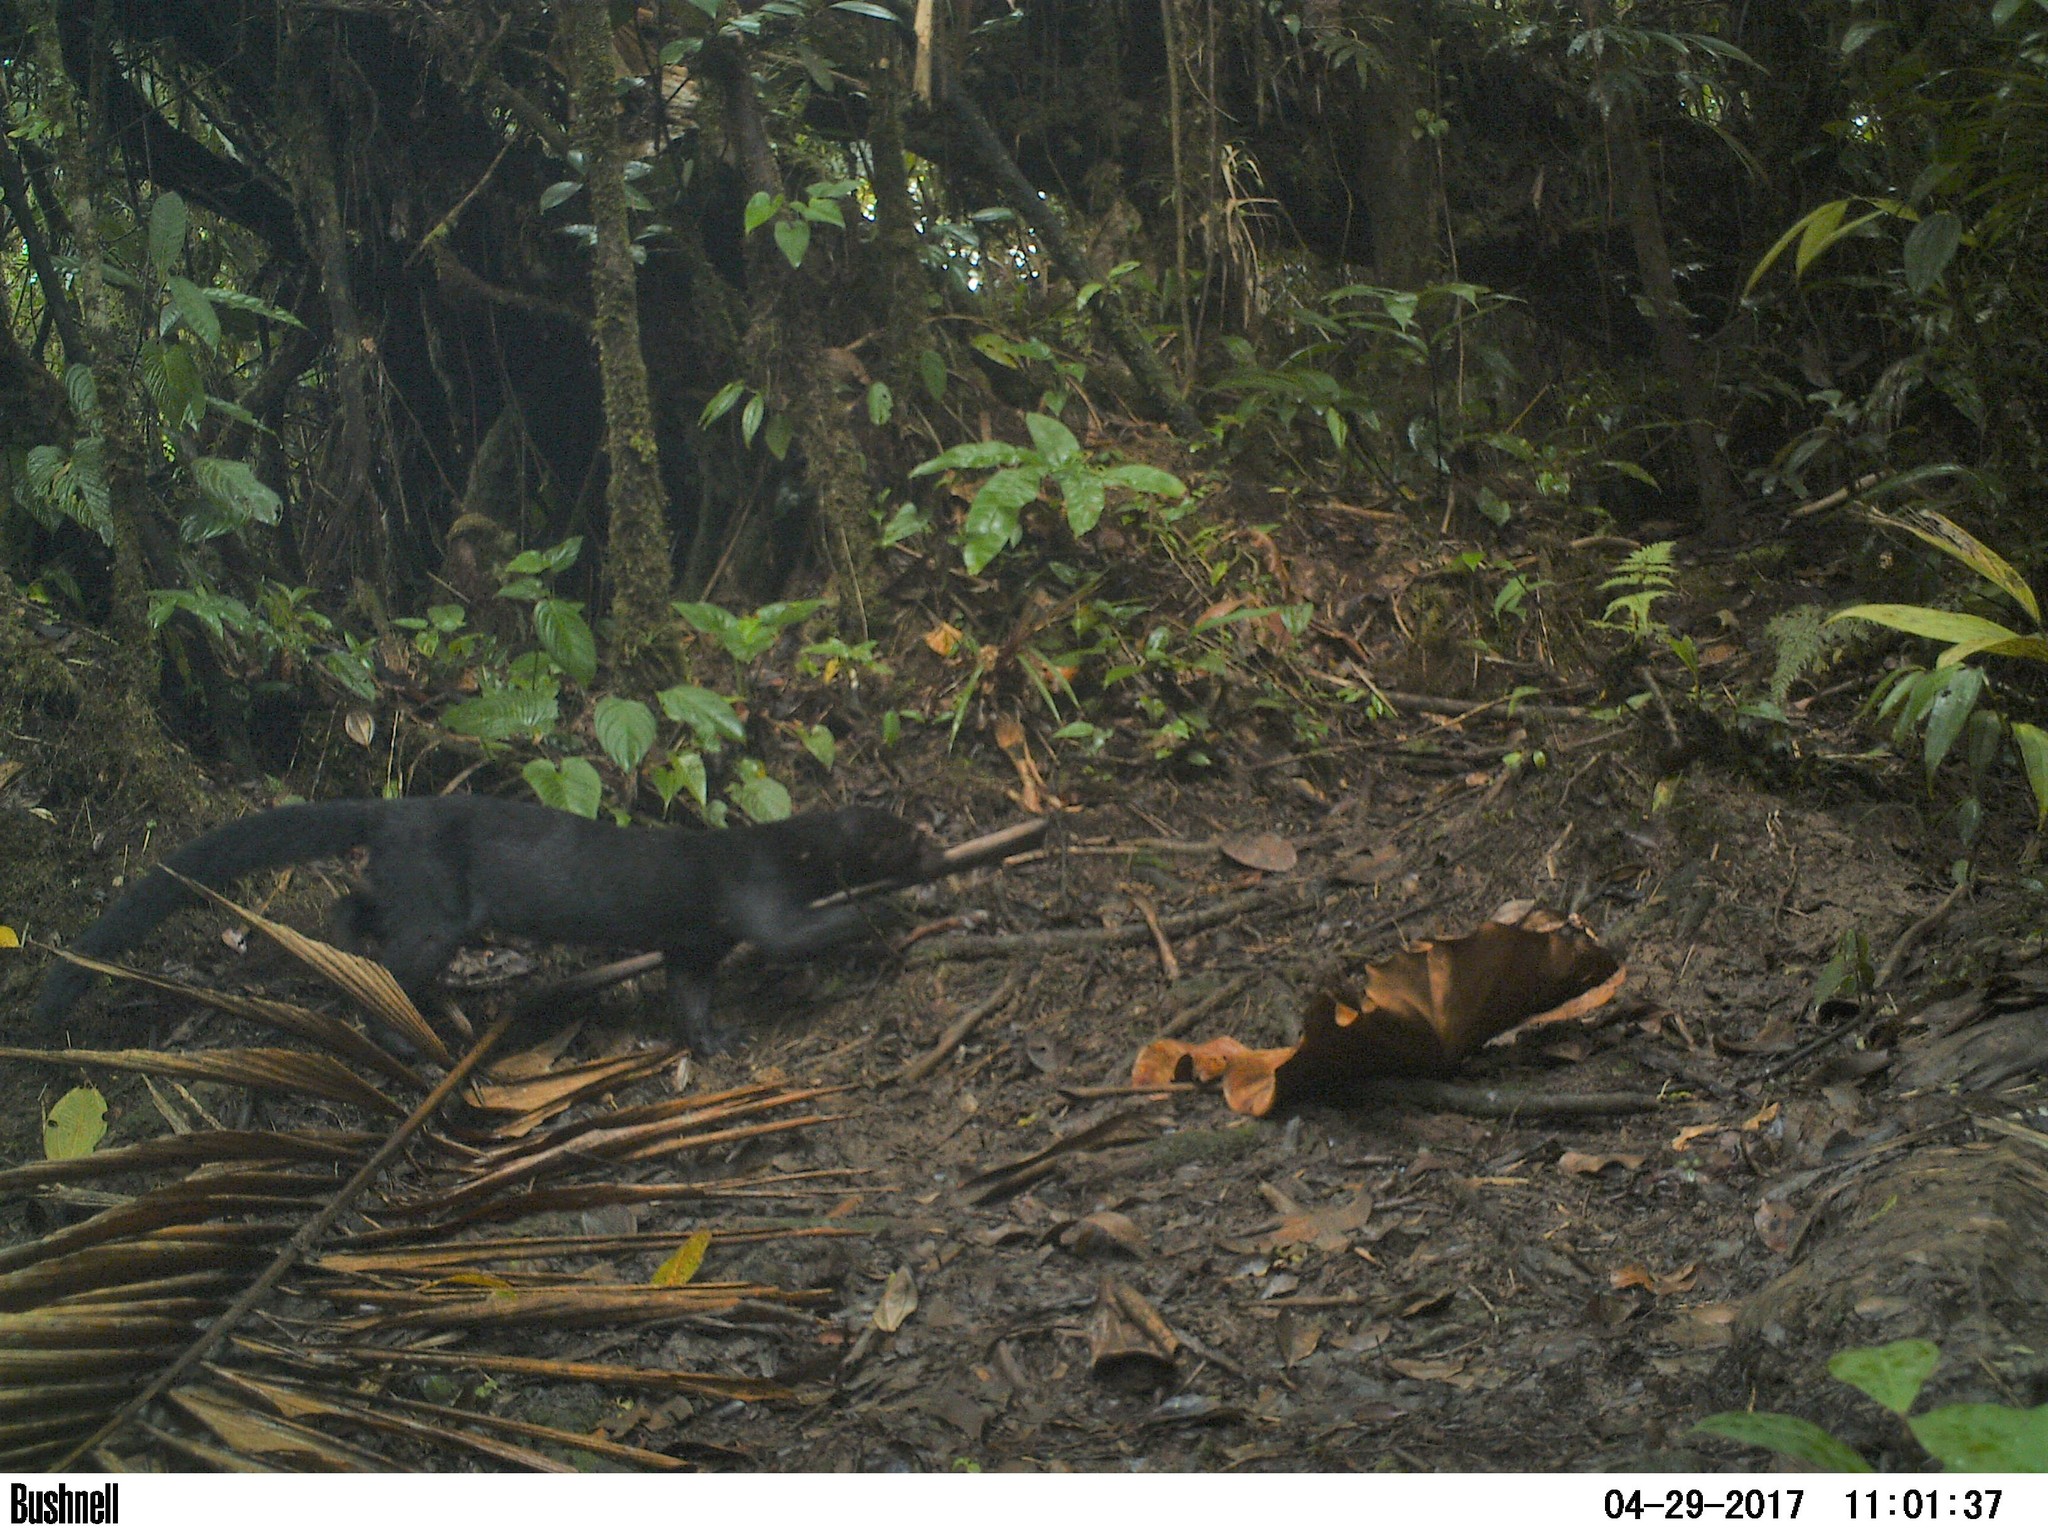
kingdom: Animalia
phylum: Chordata
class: Mammalia
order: Carnivora
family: Mustelidae
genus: Eira
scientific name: Eira barbara
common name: Tayra
